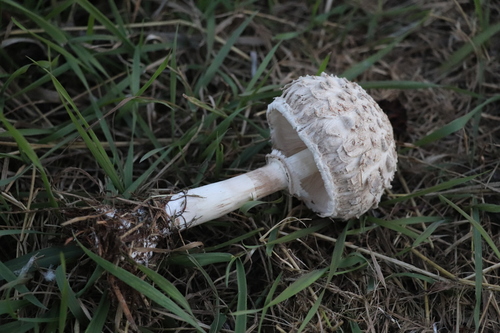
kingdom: Fungi
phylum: Basidiomycota
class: Agaricomycetes
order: Agaricales
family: Agaricaceae
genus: Chlorophyllum
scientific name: Chlorophyllum
